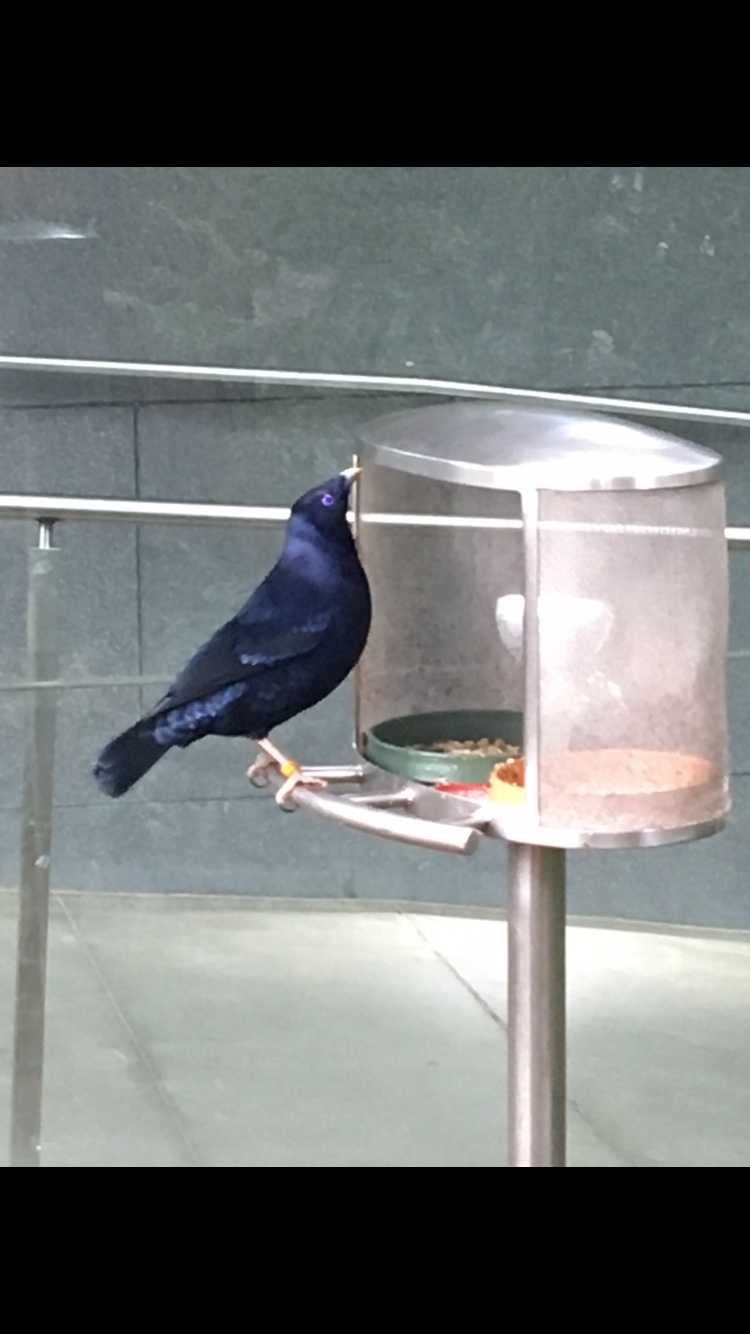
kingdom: Animalia
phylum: Chordata
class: Aves
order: Passeriformes
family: Ptilonorhynchidae
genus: Ptilonorhynchus
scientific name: Ptilonorhynchus violaceus
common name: Satin bowerbird
